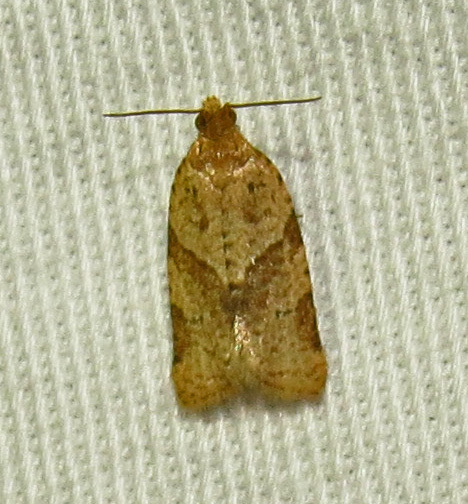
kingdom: Animalia
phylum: Arthropoda
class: Insecta
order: Lepidoptera
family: Tortricidae
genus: Clepsis
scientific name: Clepsis peritana
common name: Garden tortrix
